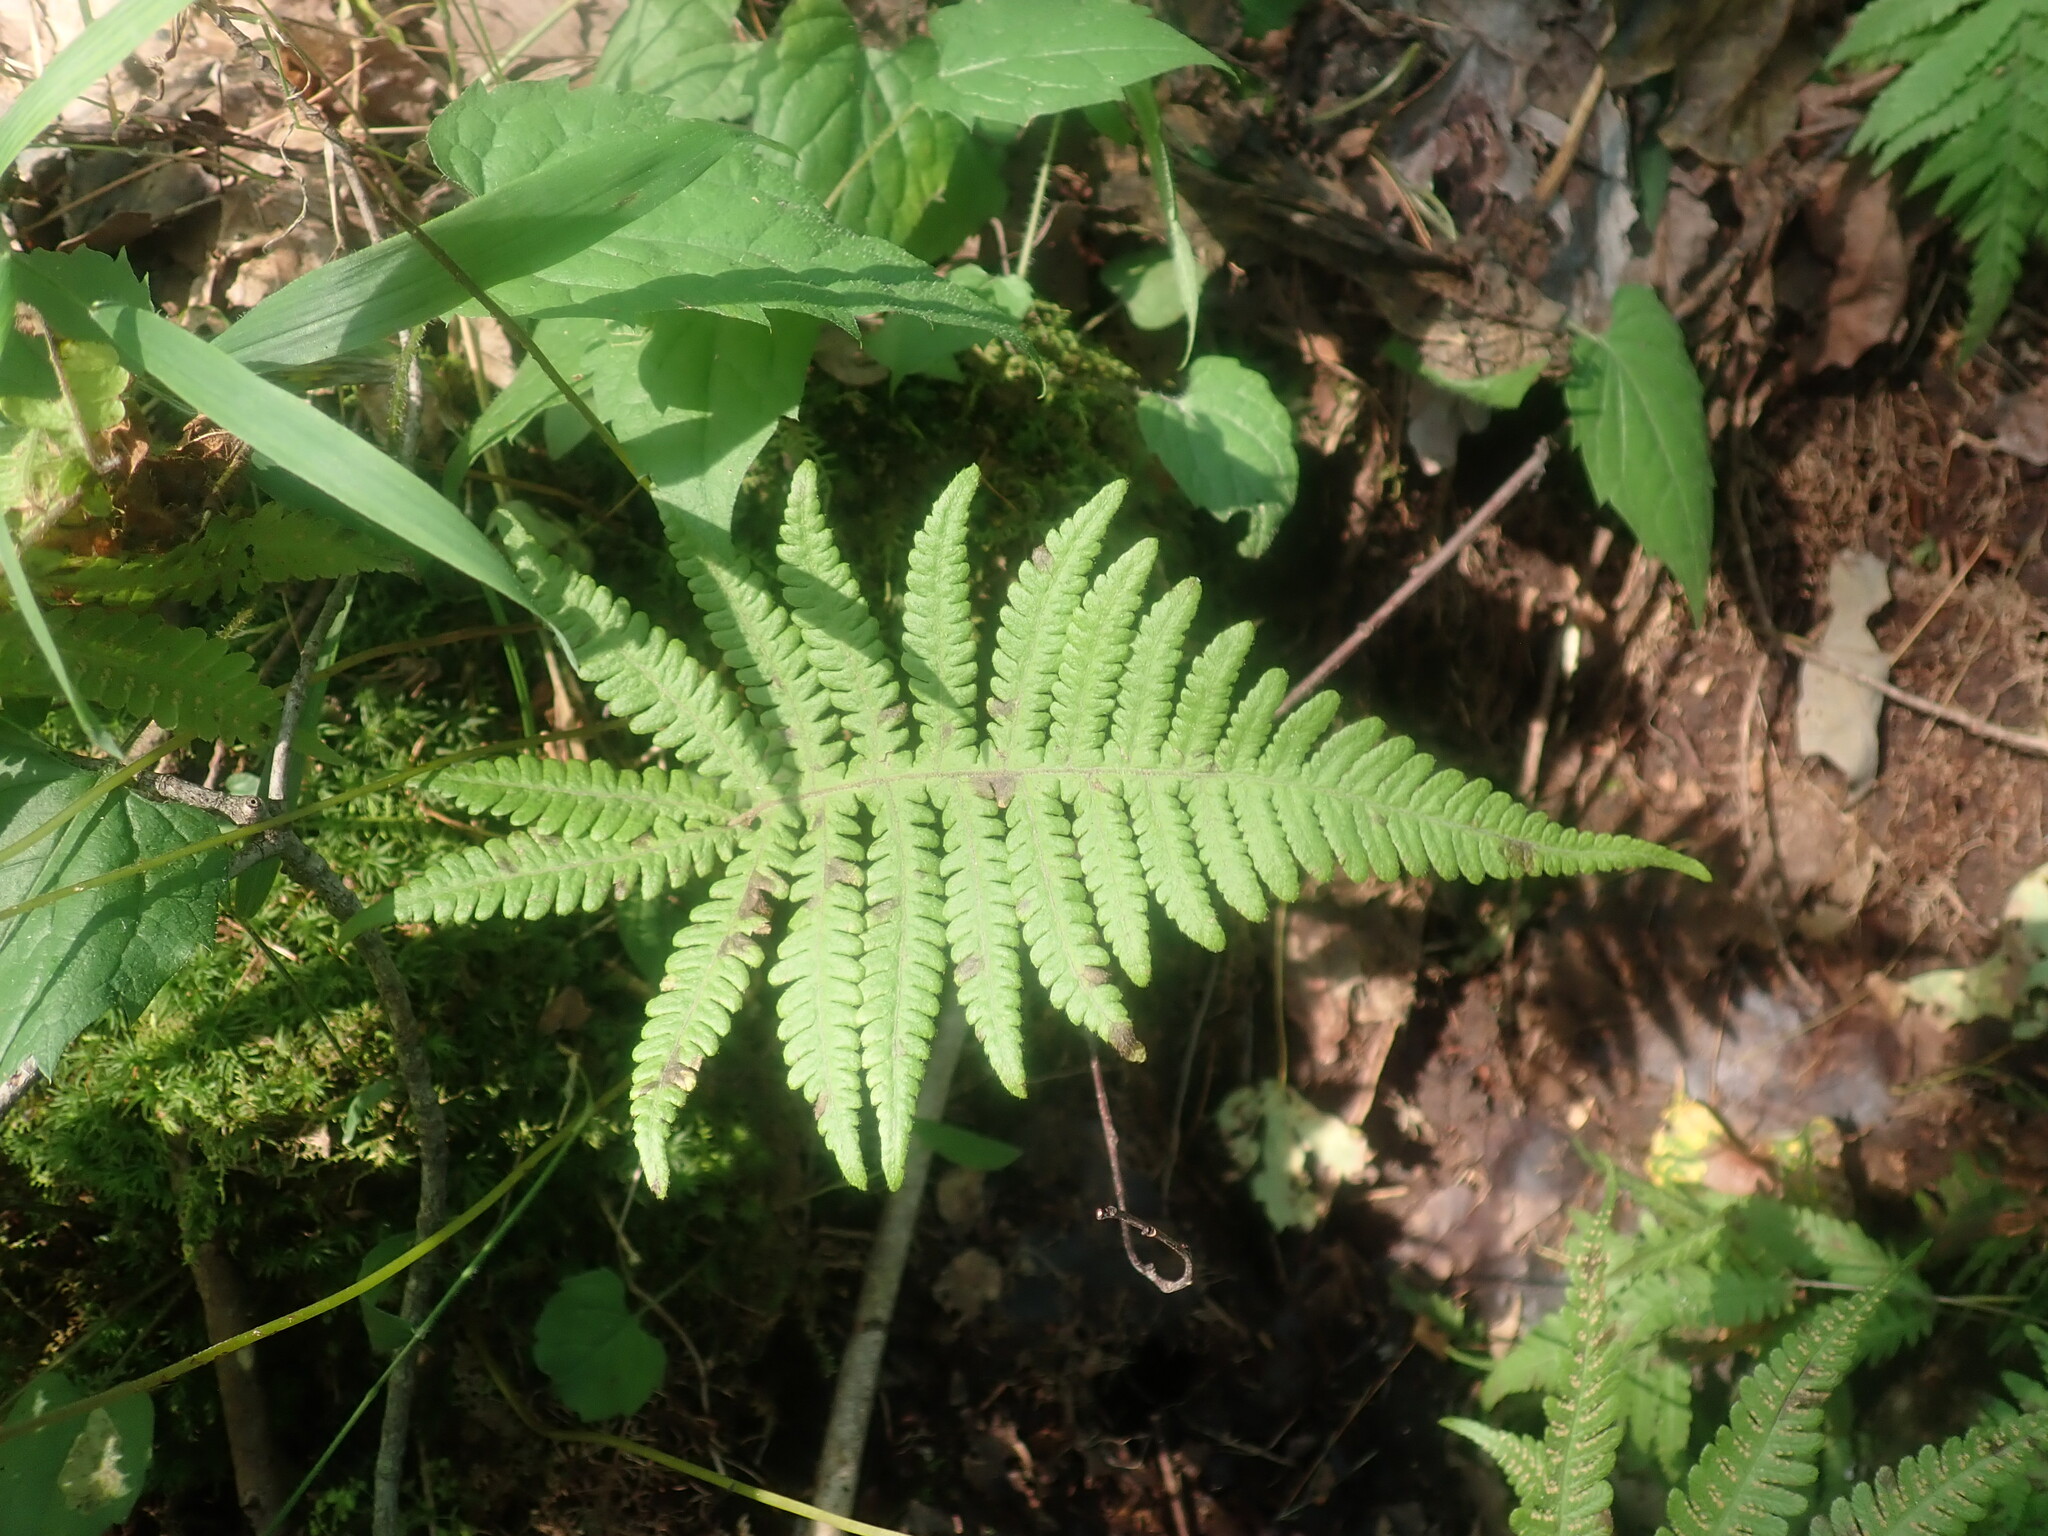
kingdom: Plantae
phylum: Tracheophyta
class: Polypodiopsida
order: Polypodiales
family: Thelypteridaceae
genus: Phegopteris
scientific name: Phegopteris connectilis
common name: Beech fern
